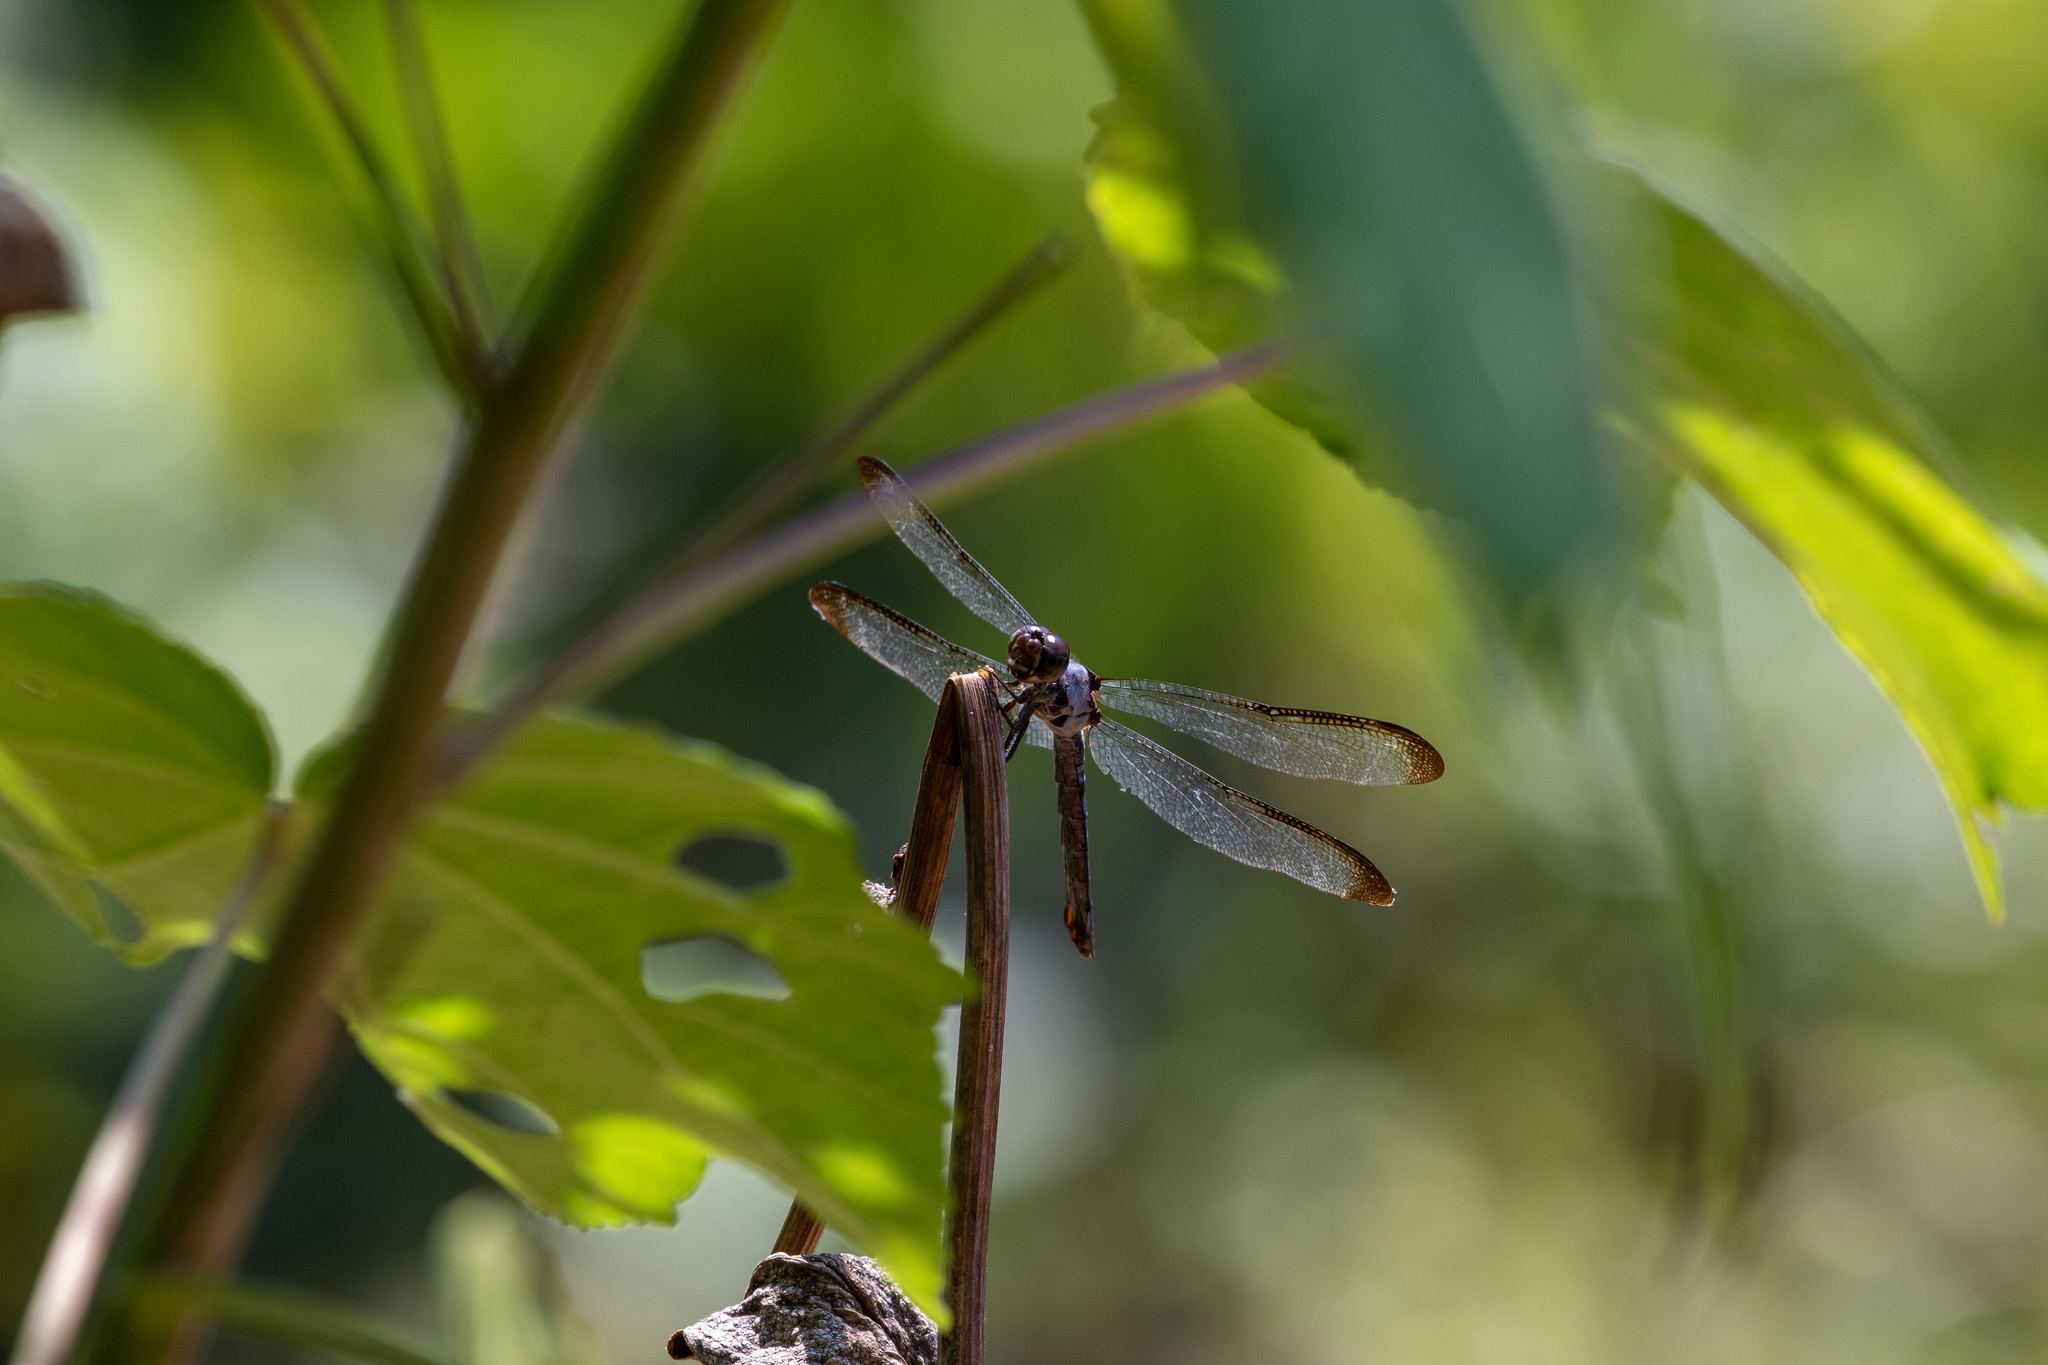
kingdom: Animalia
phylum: Arthropoda
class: Insecta
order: Odonata
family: Libellulidae
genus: Libellula
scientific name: Libellula flavida
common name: Yellow-sided skimmer
